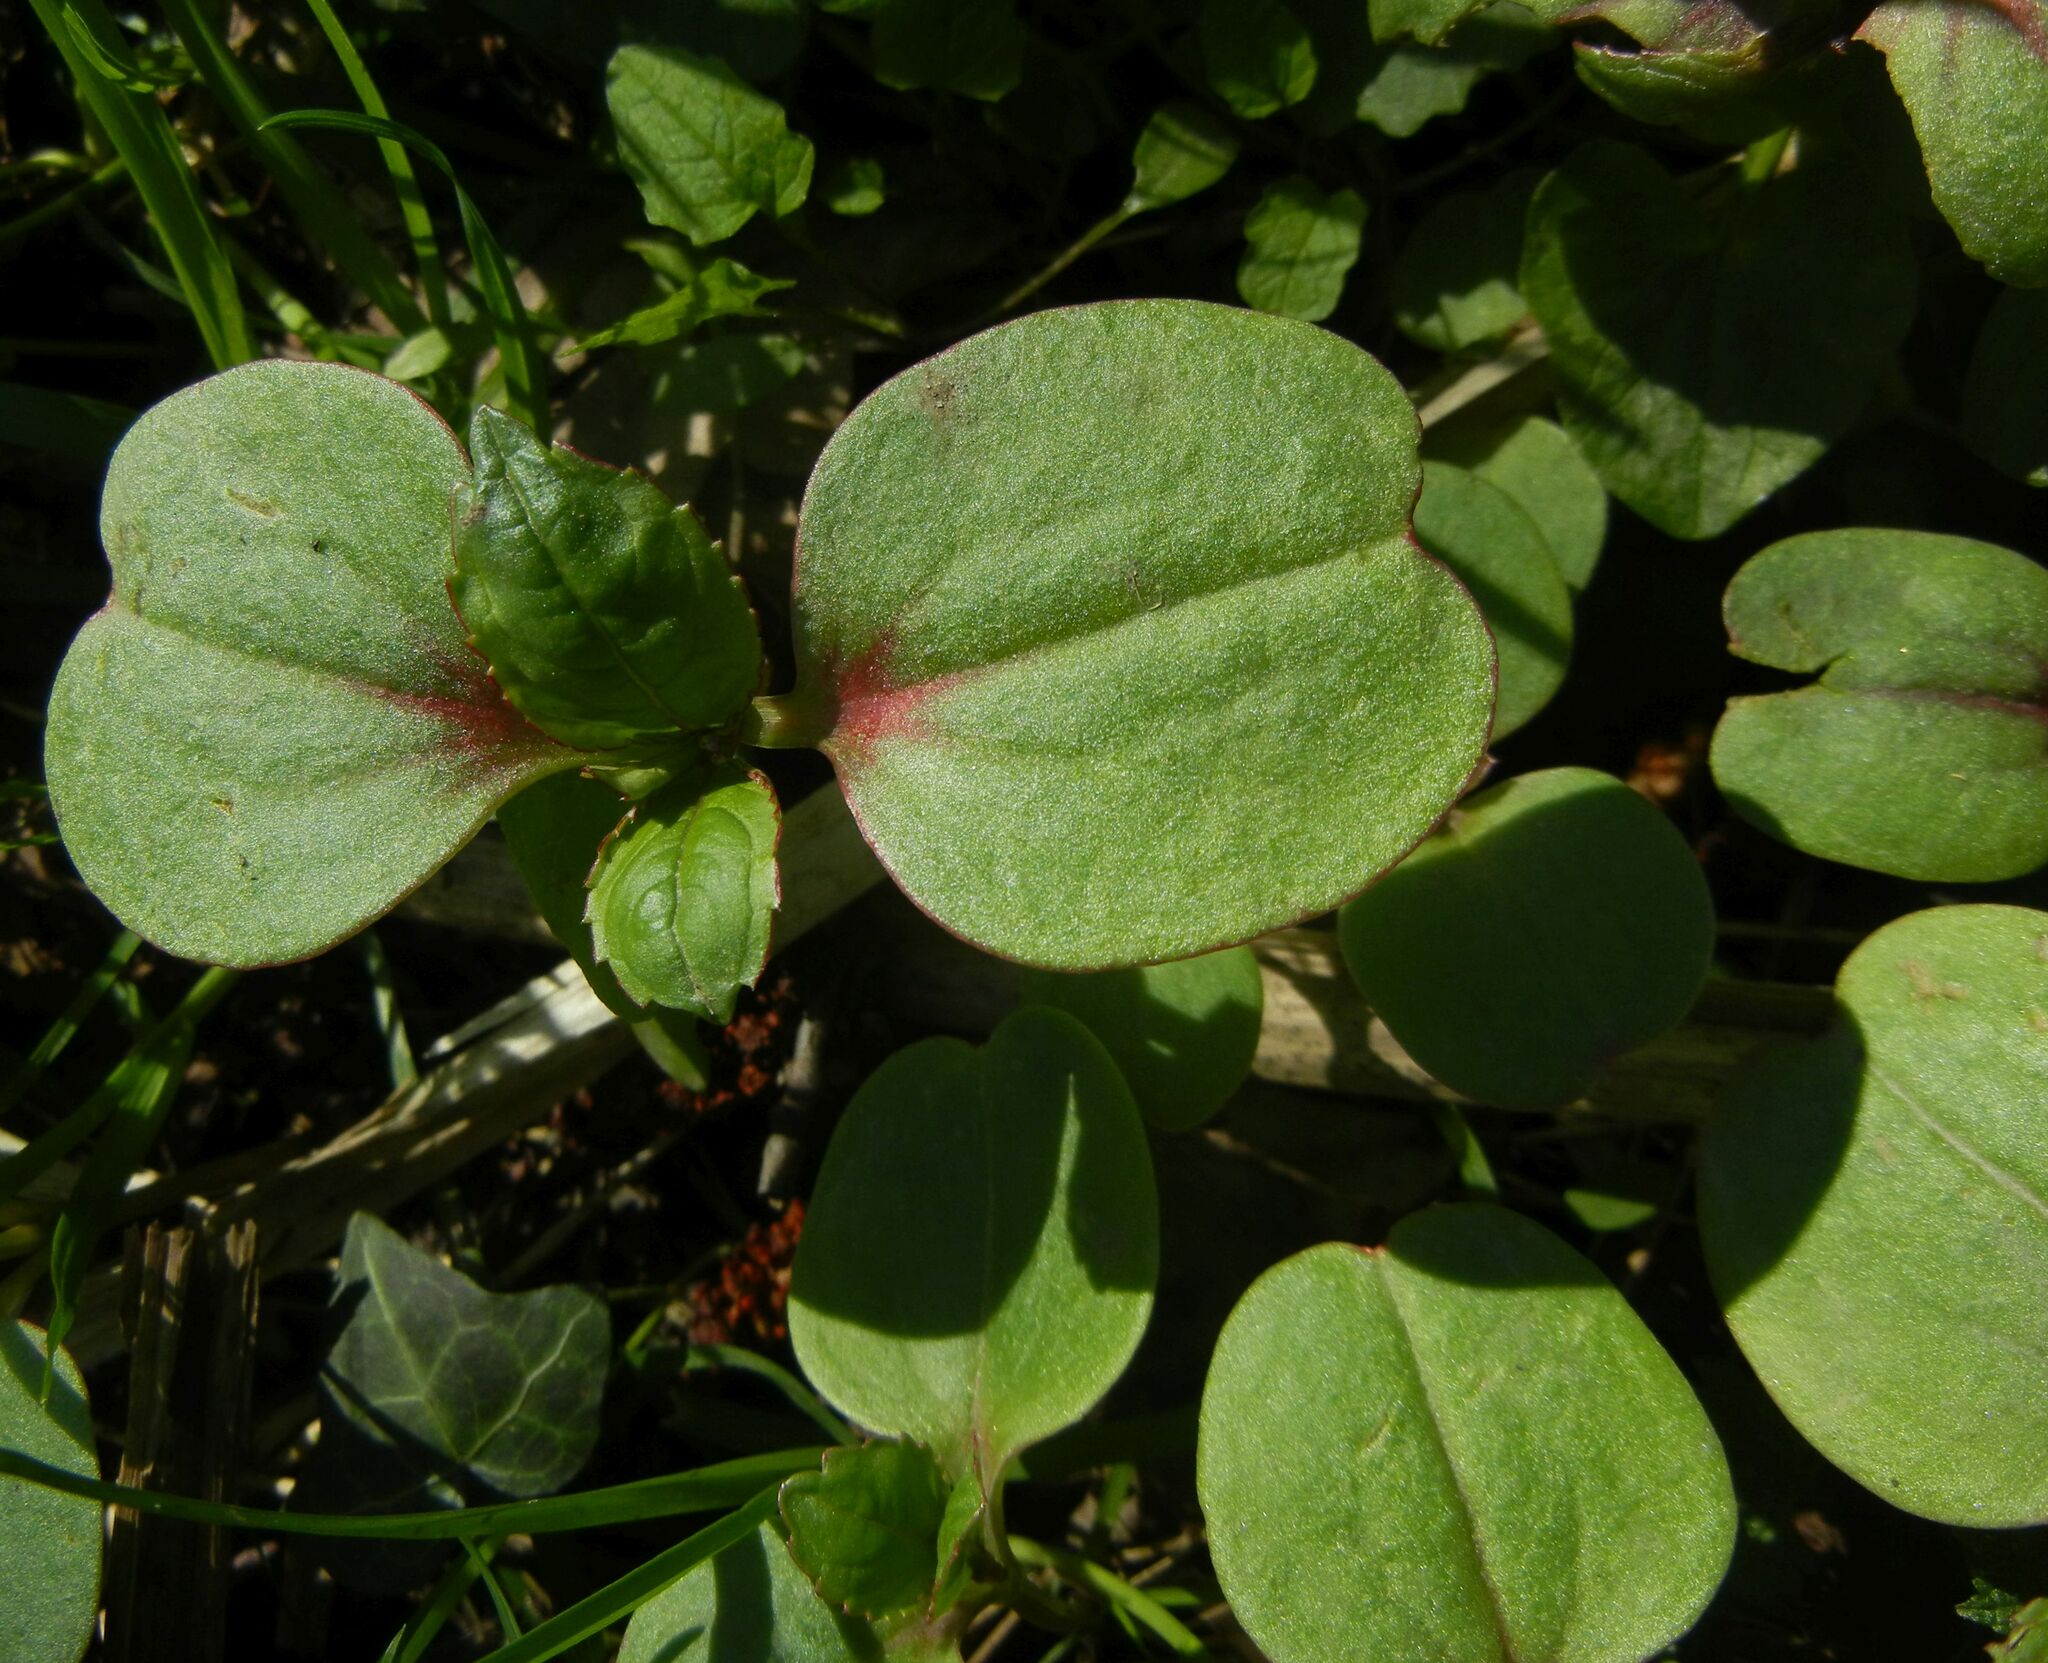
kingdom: Plantae
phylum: Tracheophyta
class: Magnoliopsida
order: Ericales
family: Balsaminaceae
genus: Impatiens
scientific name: Impatiens glandulifera
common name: Himalayan balsam
